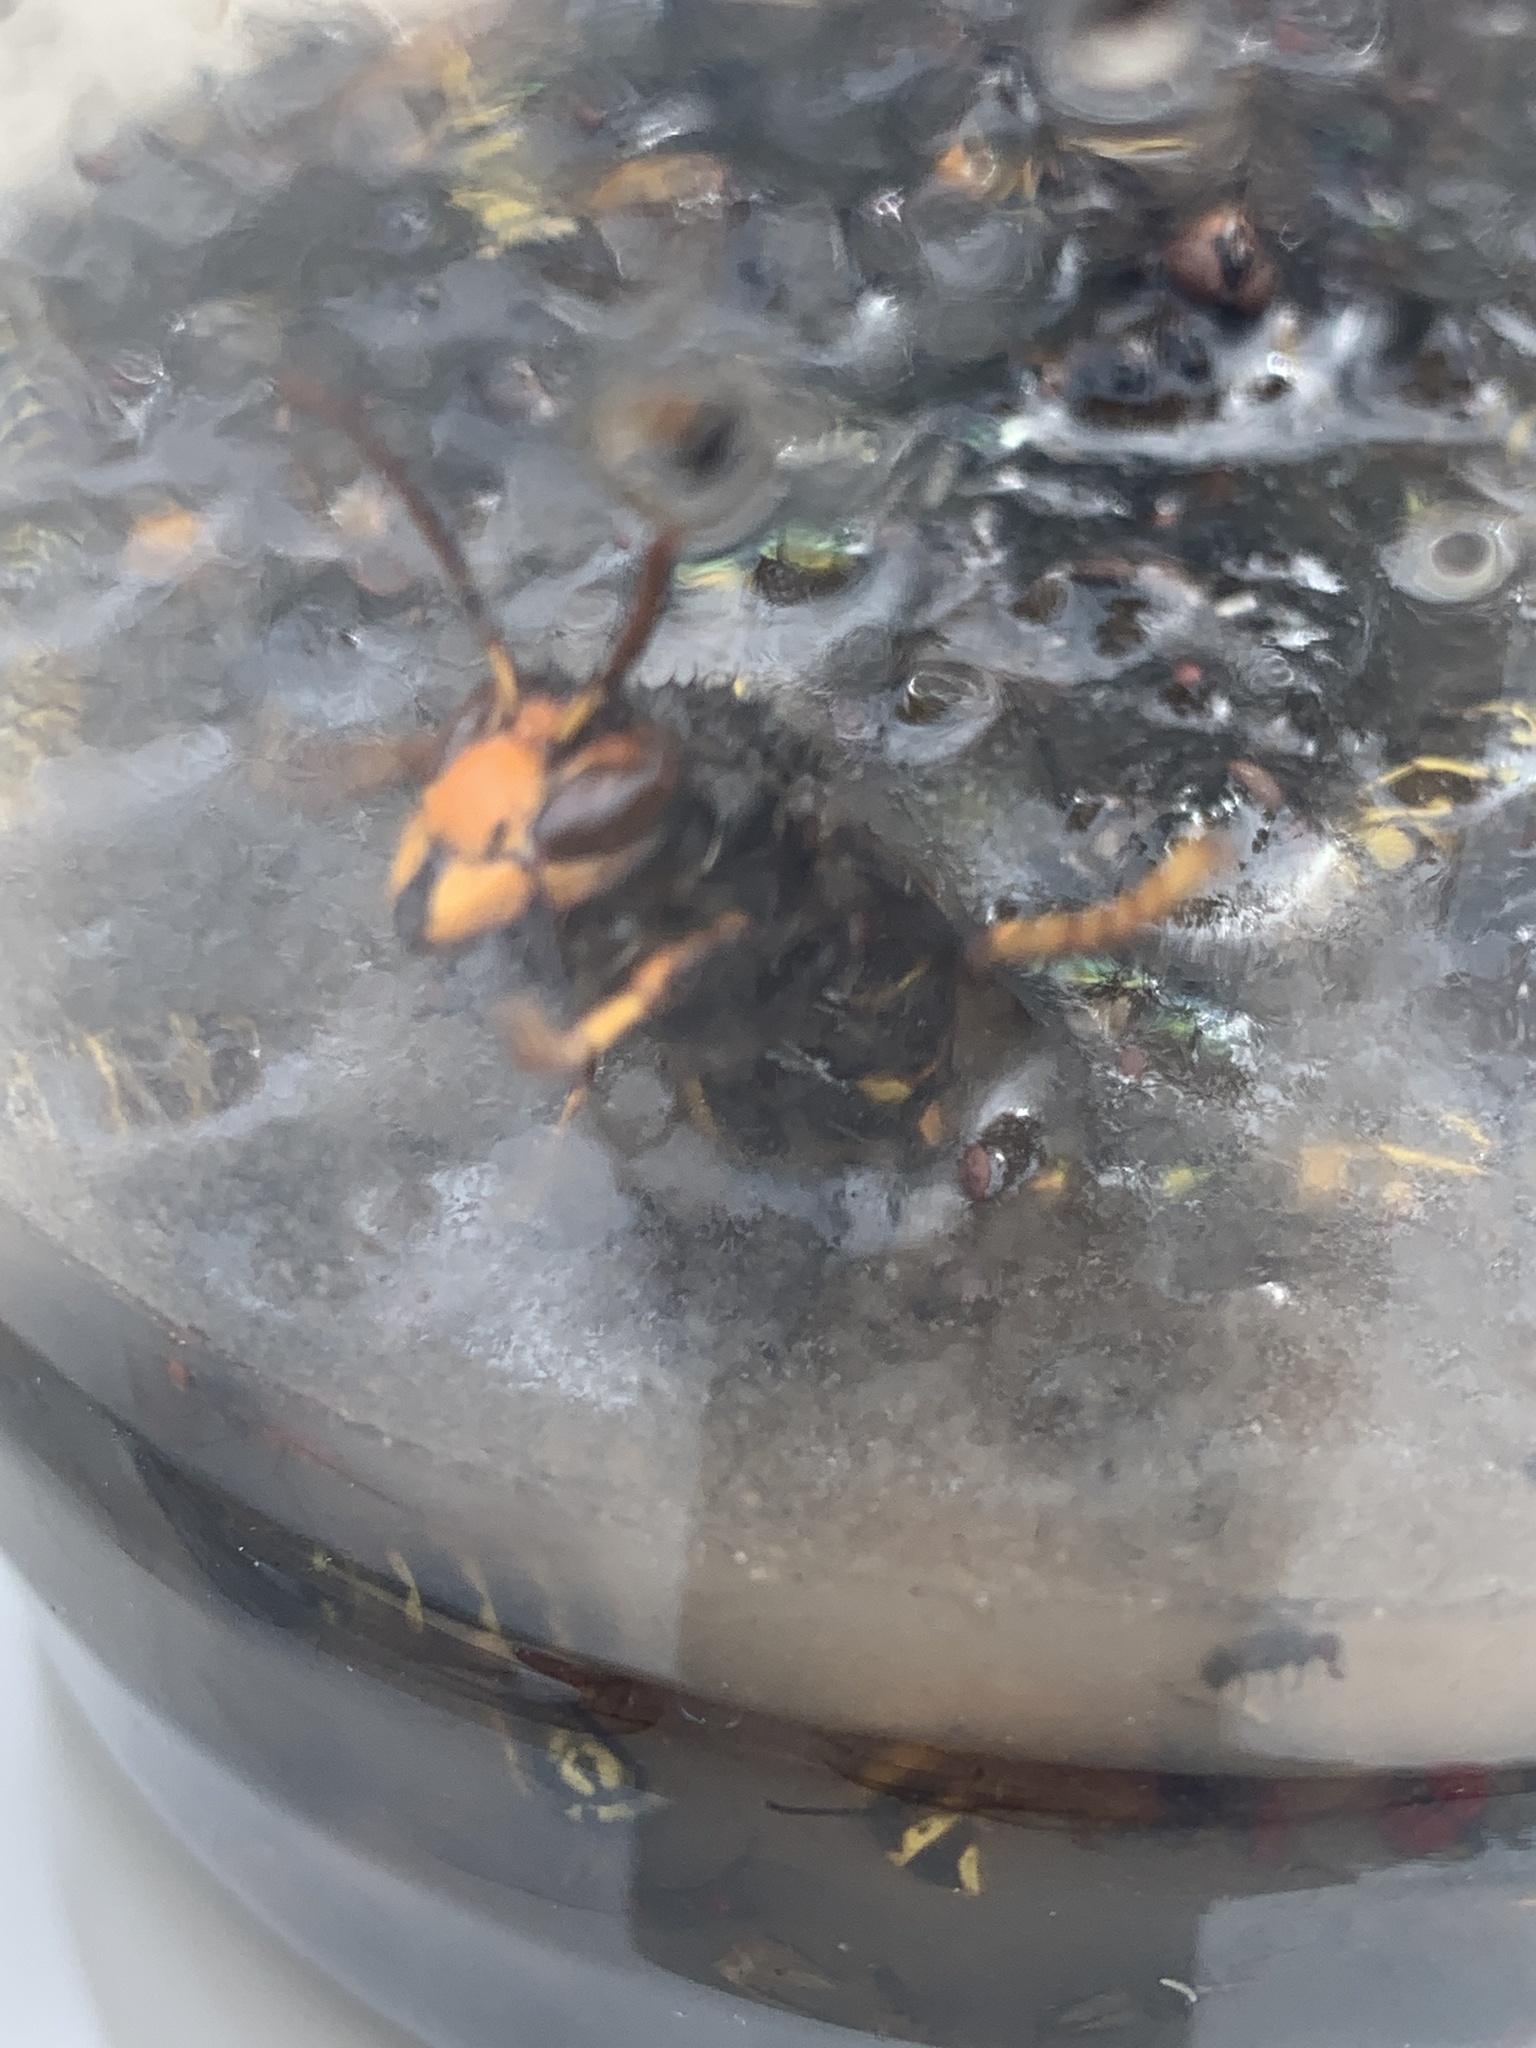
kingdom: Animalia
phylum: Arthropoda
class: Insecta
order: Hymenoptera
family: Vespidae
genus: Vespa
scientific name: Vespa velutina
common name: Asian hornet
